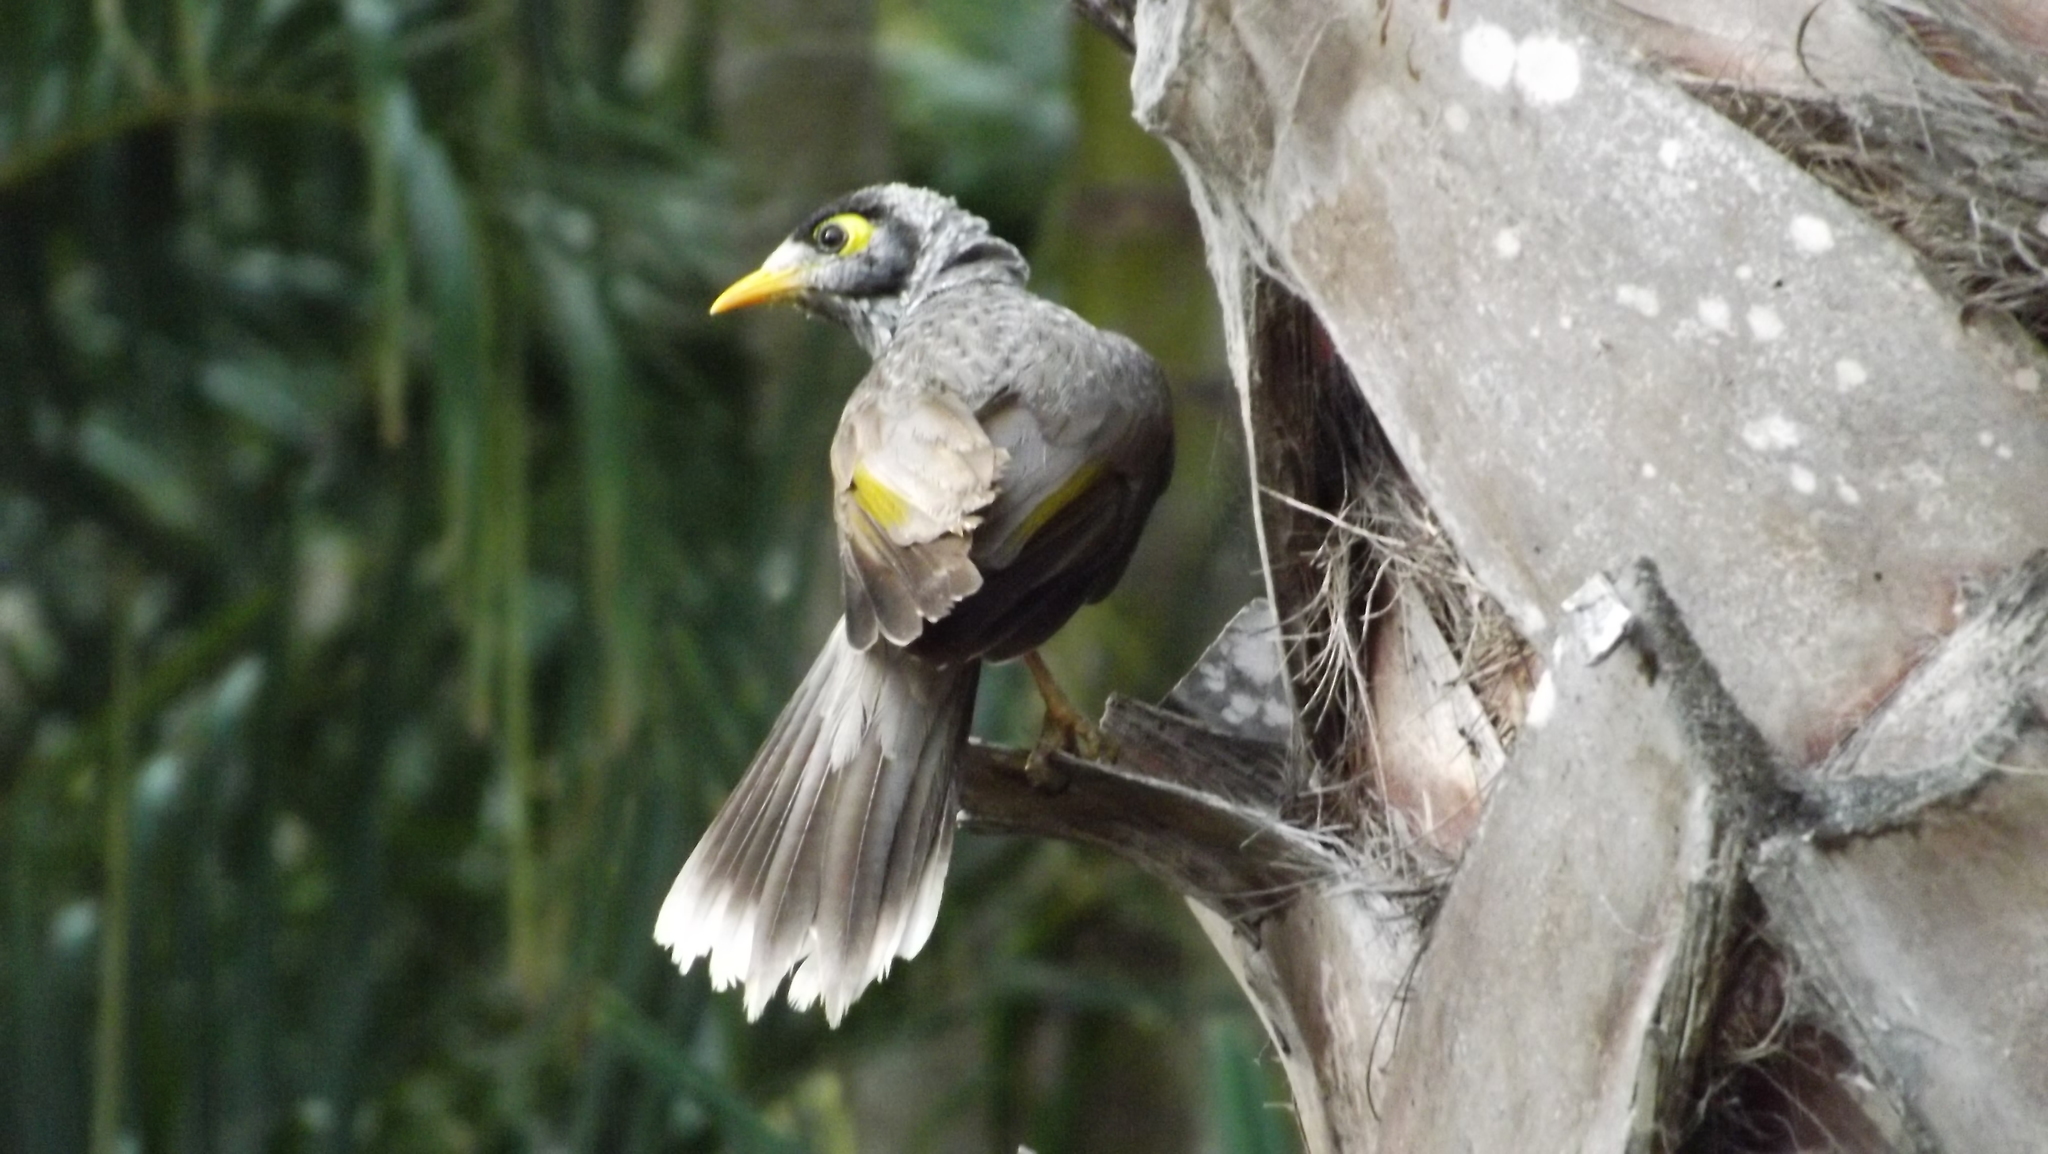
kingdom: Animalia
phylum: Chordata
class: Aves
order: Passeriformes
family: Meliphagidae
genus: Manorina
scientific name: Manorina melanocephala
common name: Noisy miner
